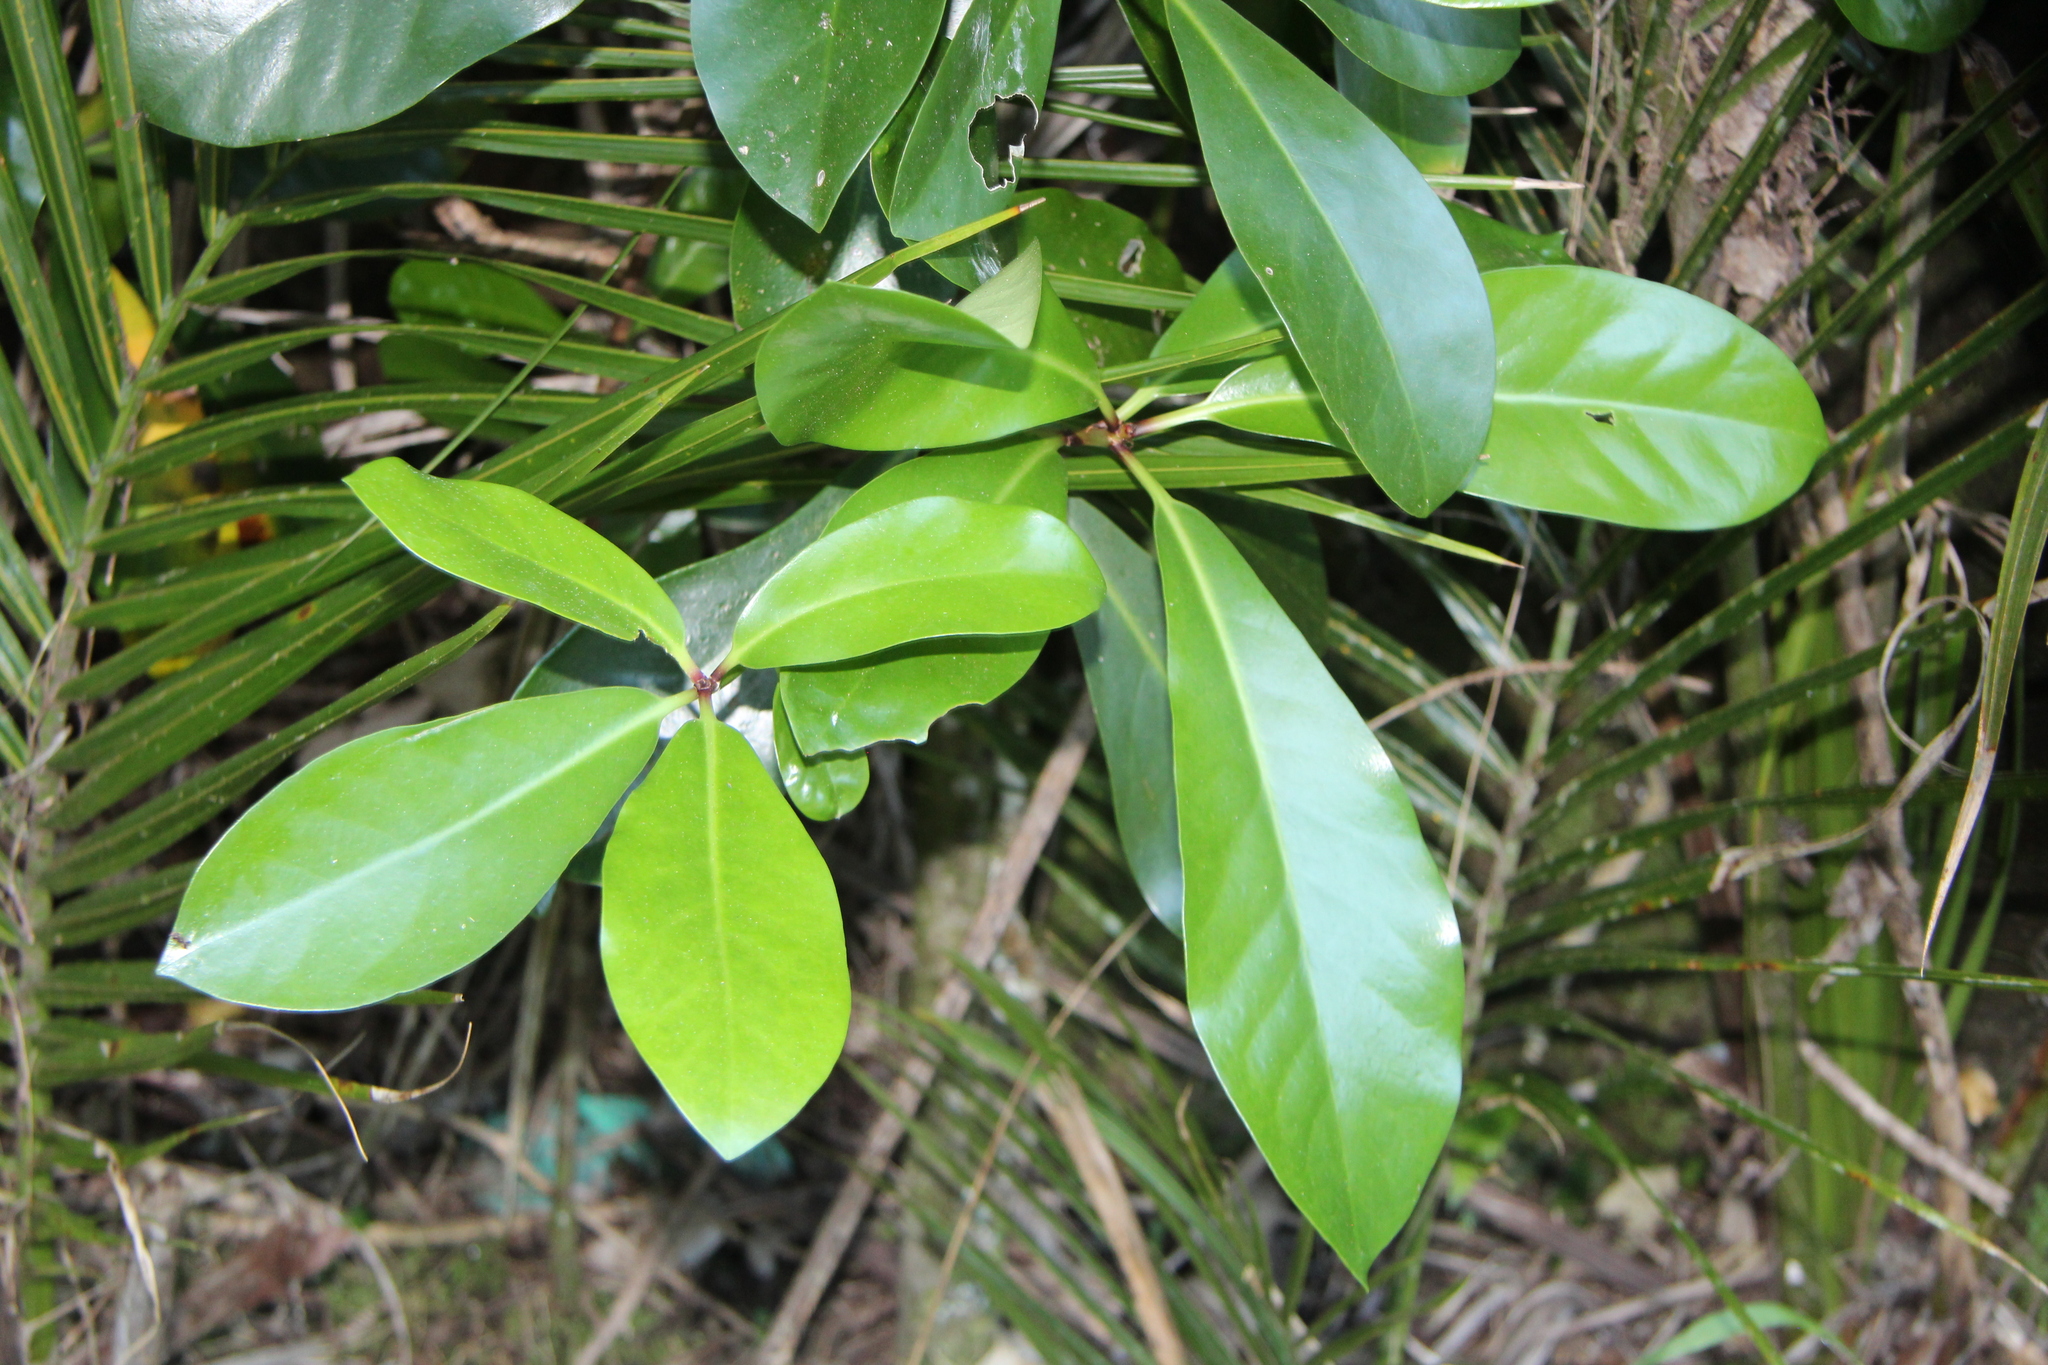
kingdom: Plantae
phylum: Tracheophyta
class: Magnoliopsida
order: Cucurbitales
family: Corynocarpaceae
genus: Corynocarpus
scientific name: Corynocarpus laevigatus
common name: New zealand laurel
